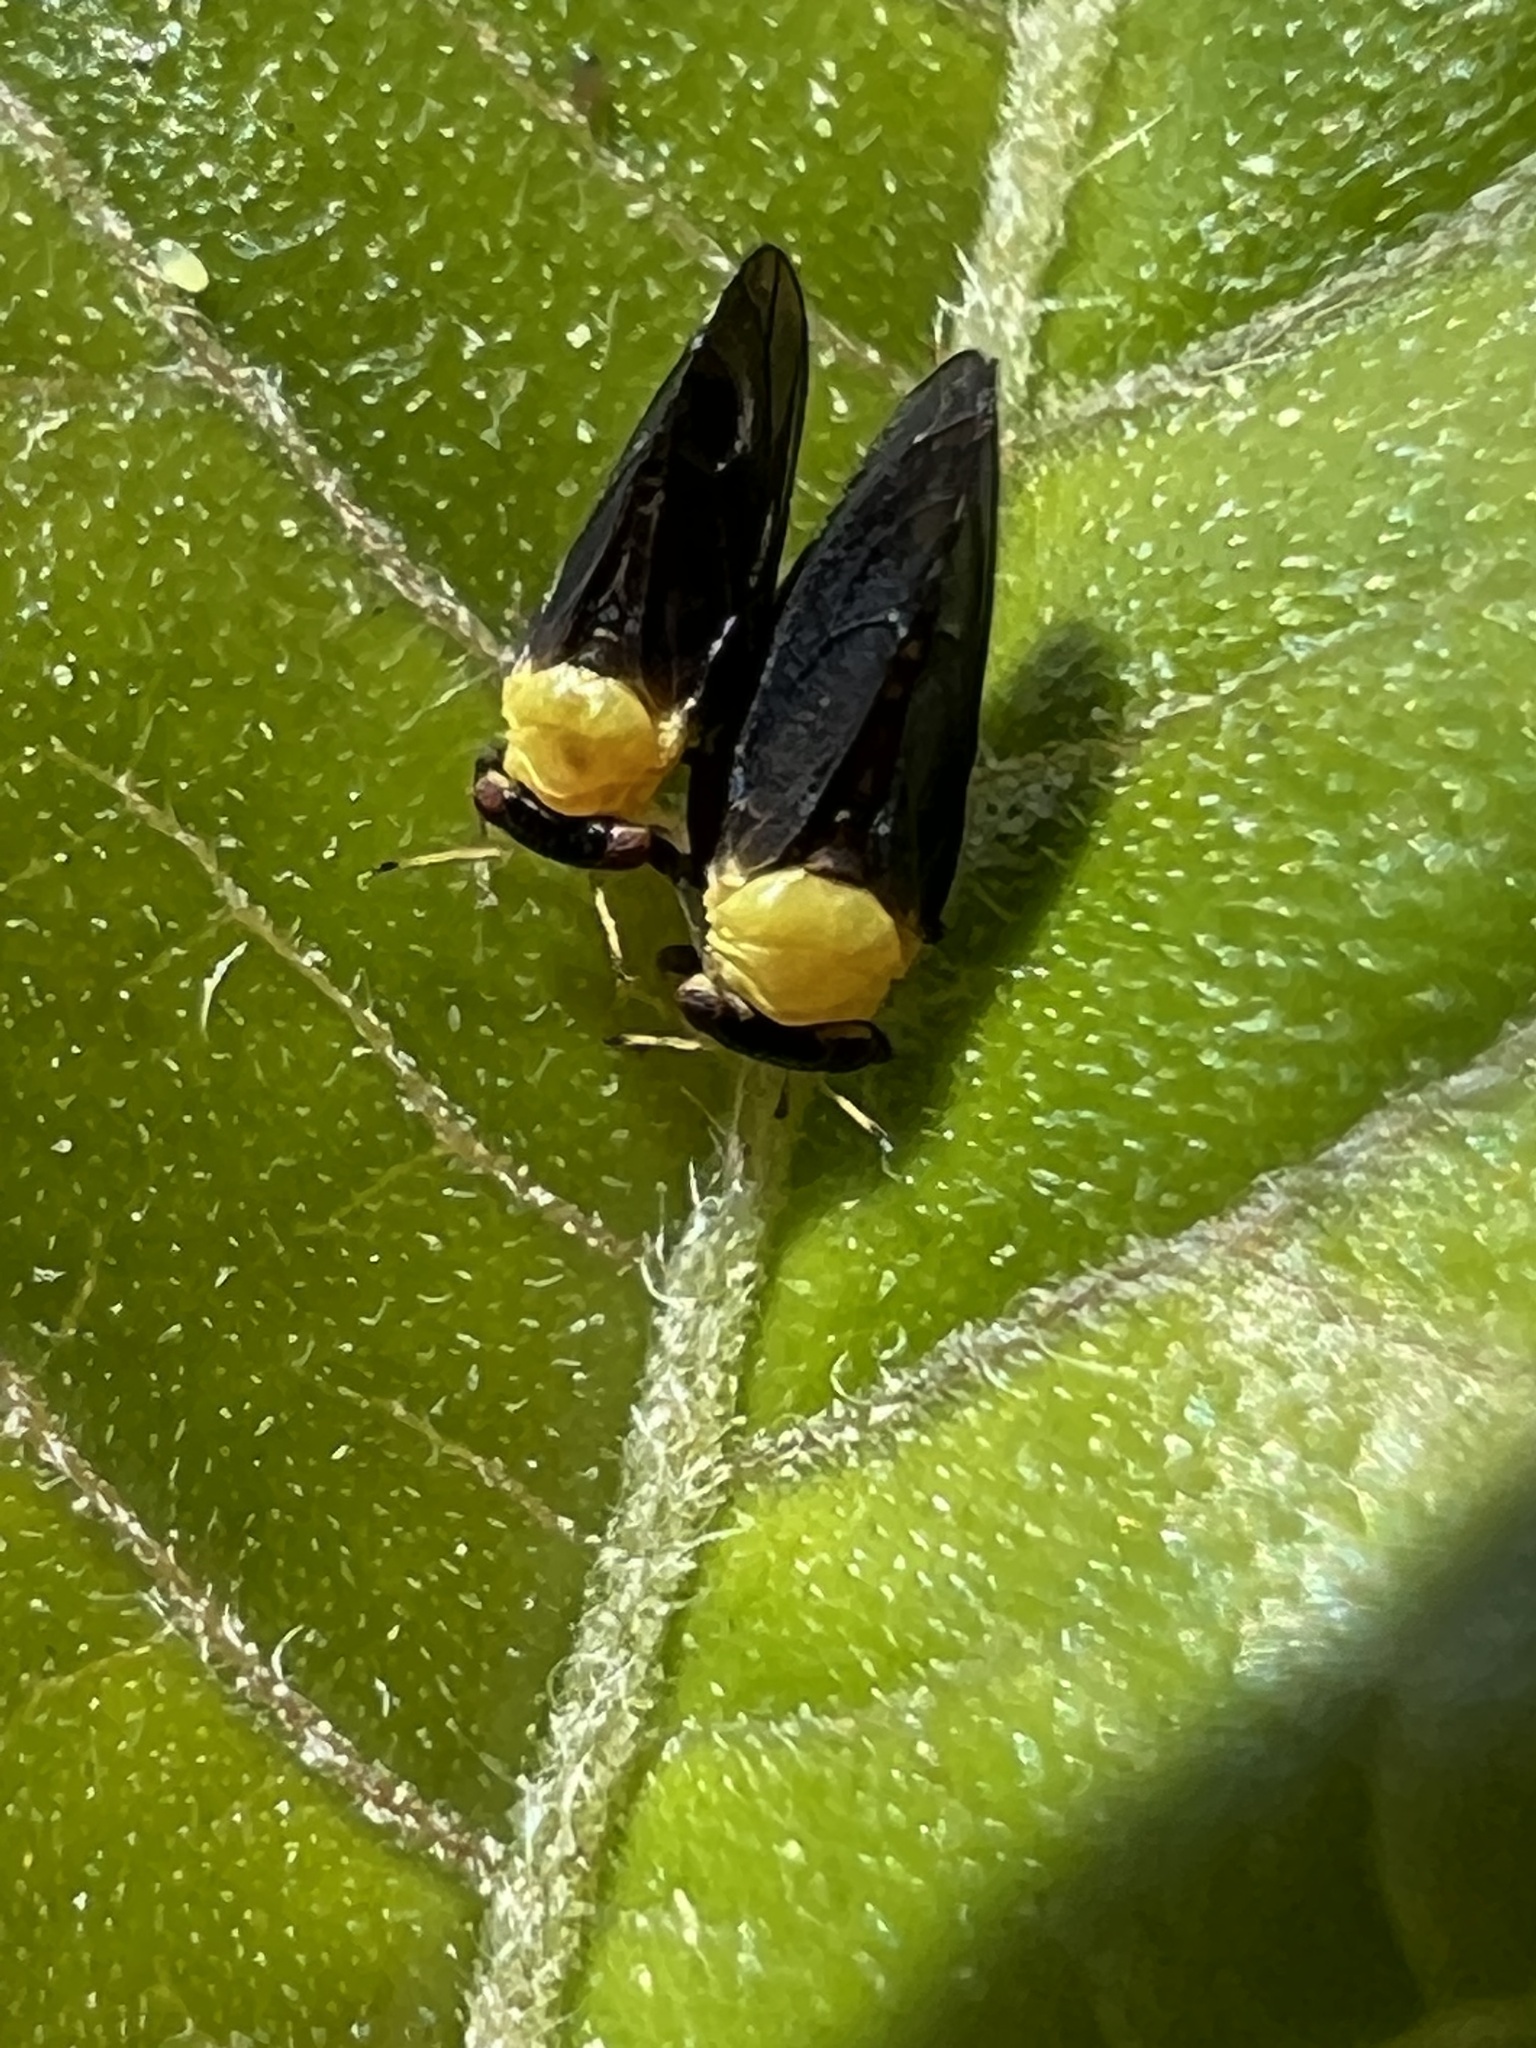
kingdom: Animalia
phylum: Arthropoda
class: Insecta
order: Hemiptera
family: Calophyidae
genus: Calophya
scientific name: Calophya nigripennis
